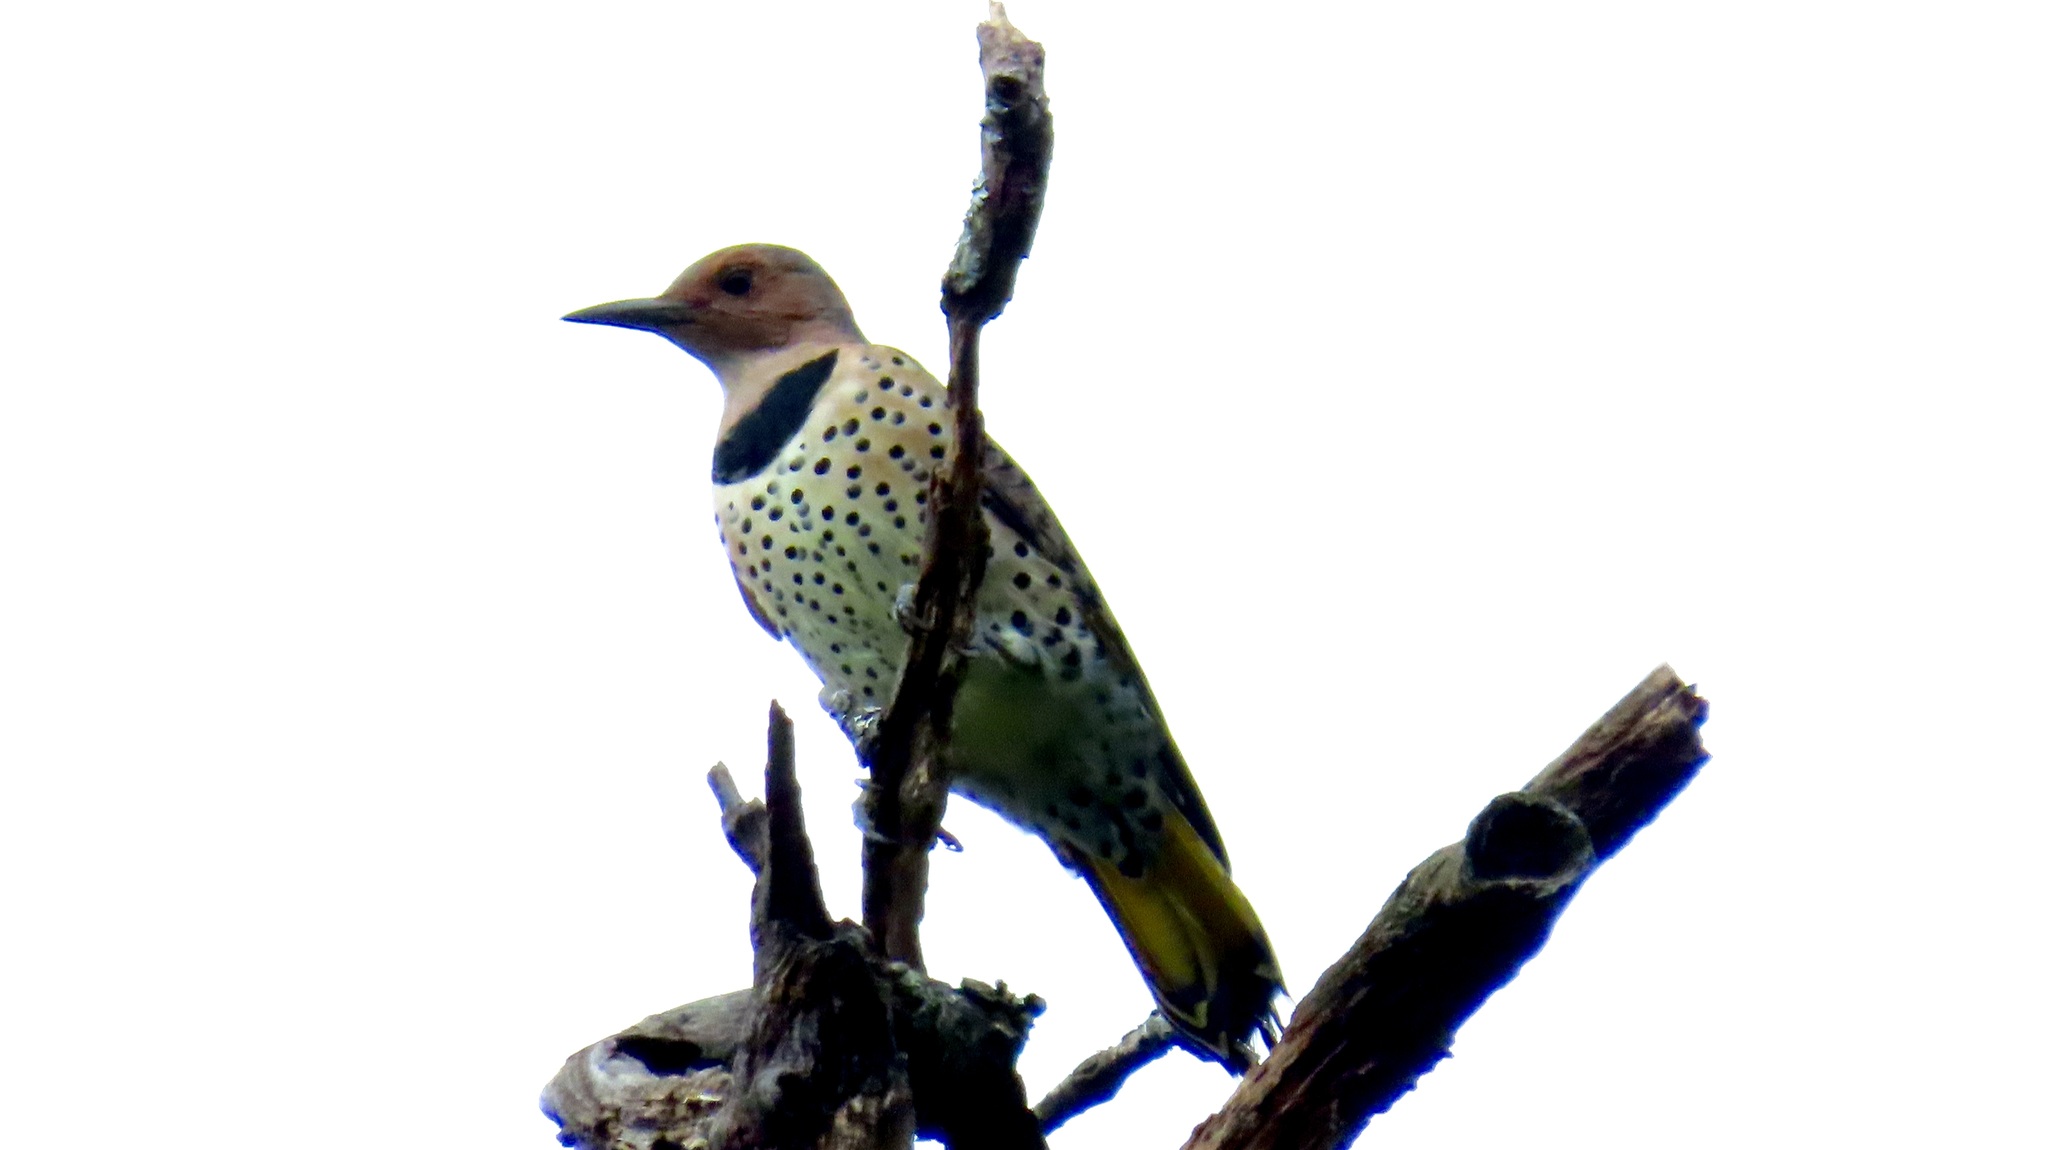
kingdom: Animalia
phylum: Chordata
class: Aves
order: Piciformes
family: Picidae
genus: Colaptes
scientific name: Colaptes auratus
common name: Northern flicker
